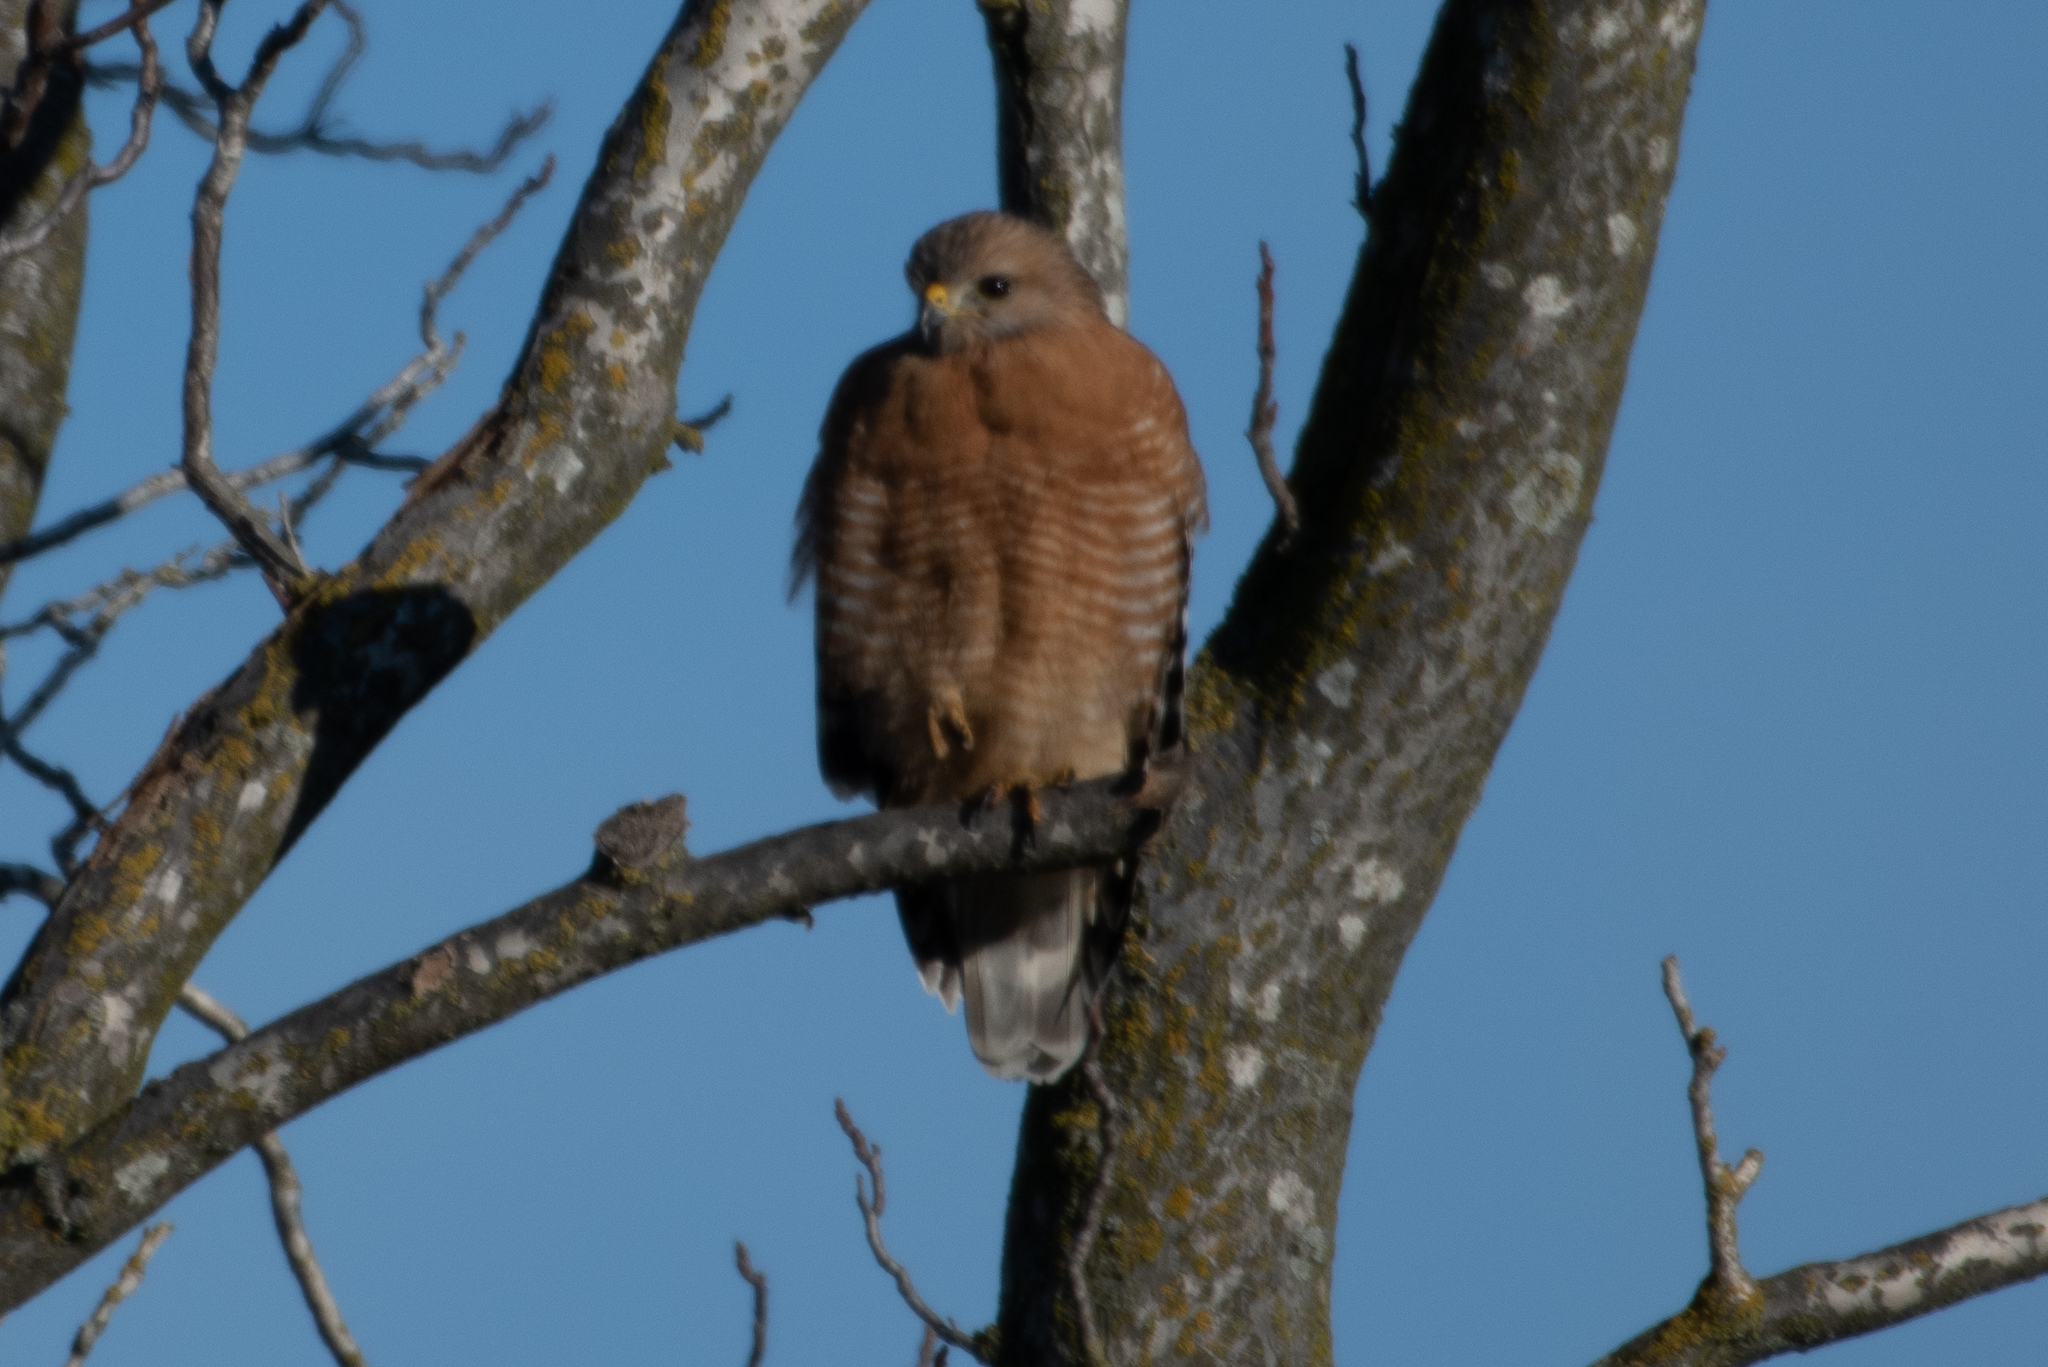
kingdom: Animalia
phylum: Chordata
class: Aves
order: Accipitriformes
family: Accipitridae
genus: Buteo
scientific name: Buteo lineatus
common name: Red-shouldered hawk
